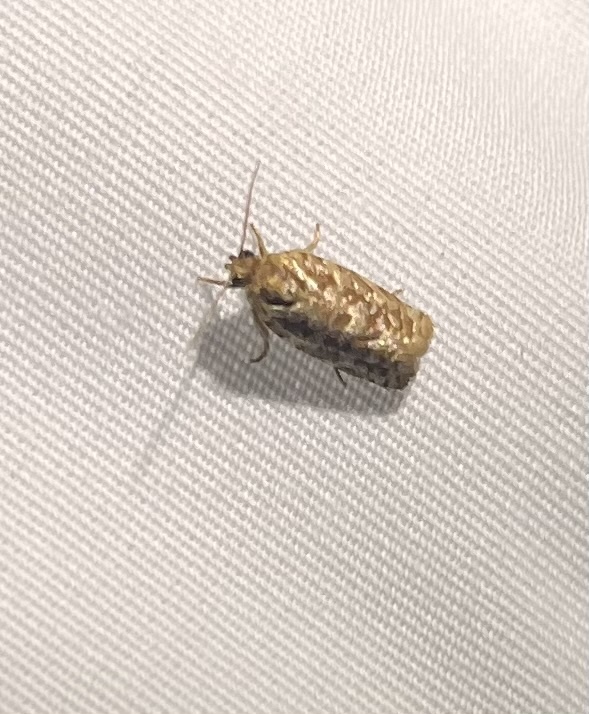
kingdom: Animalia
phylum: Arthropoda
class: Insecta
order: Lepidoptera
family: Tortricidae
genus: Choristoneura
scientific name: Choristoneura houstonana
